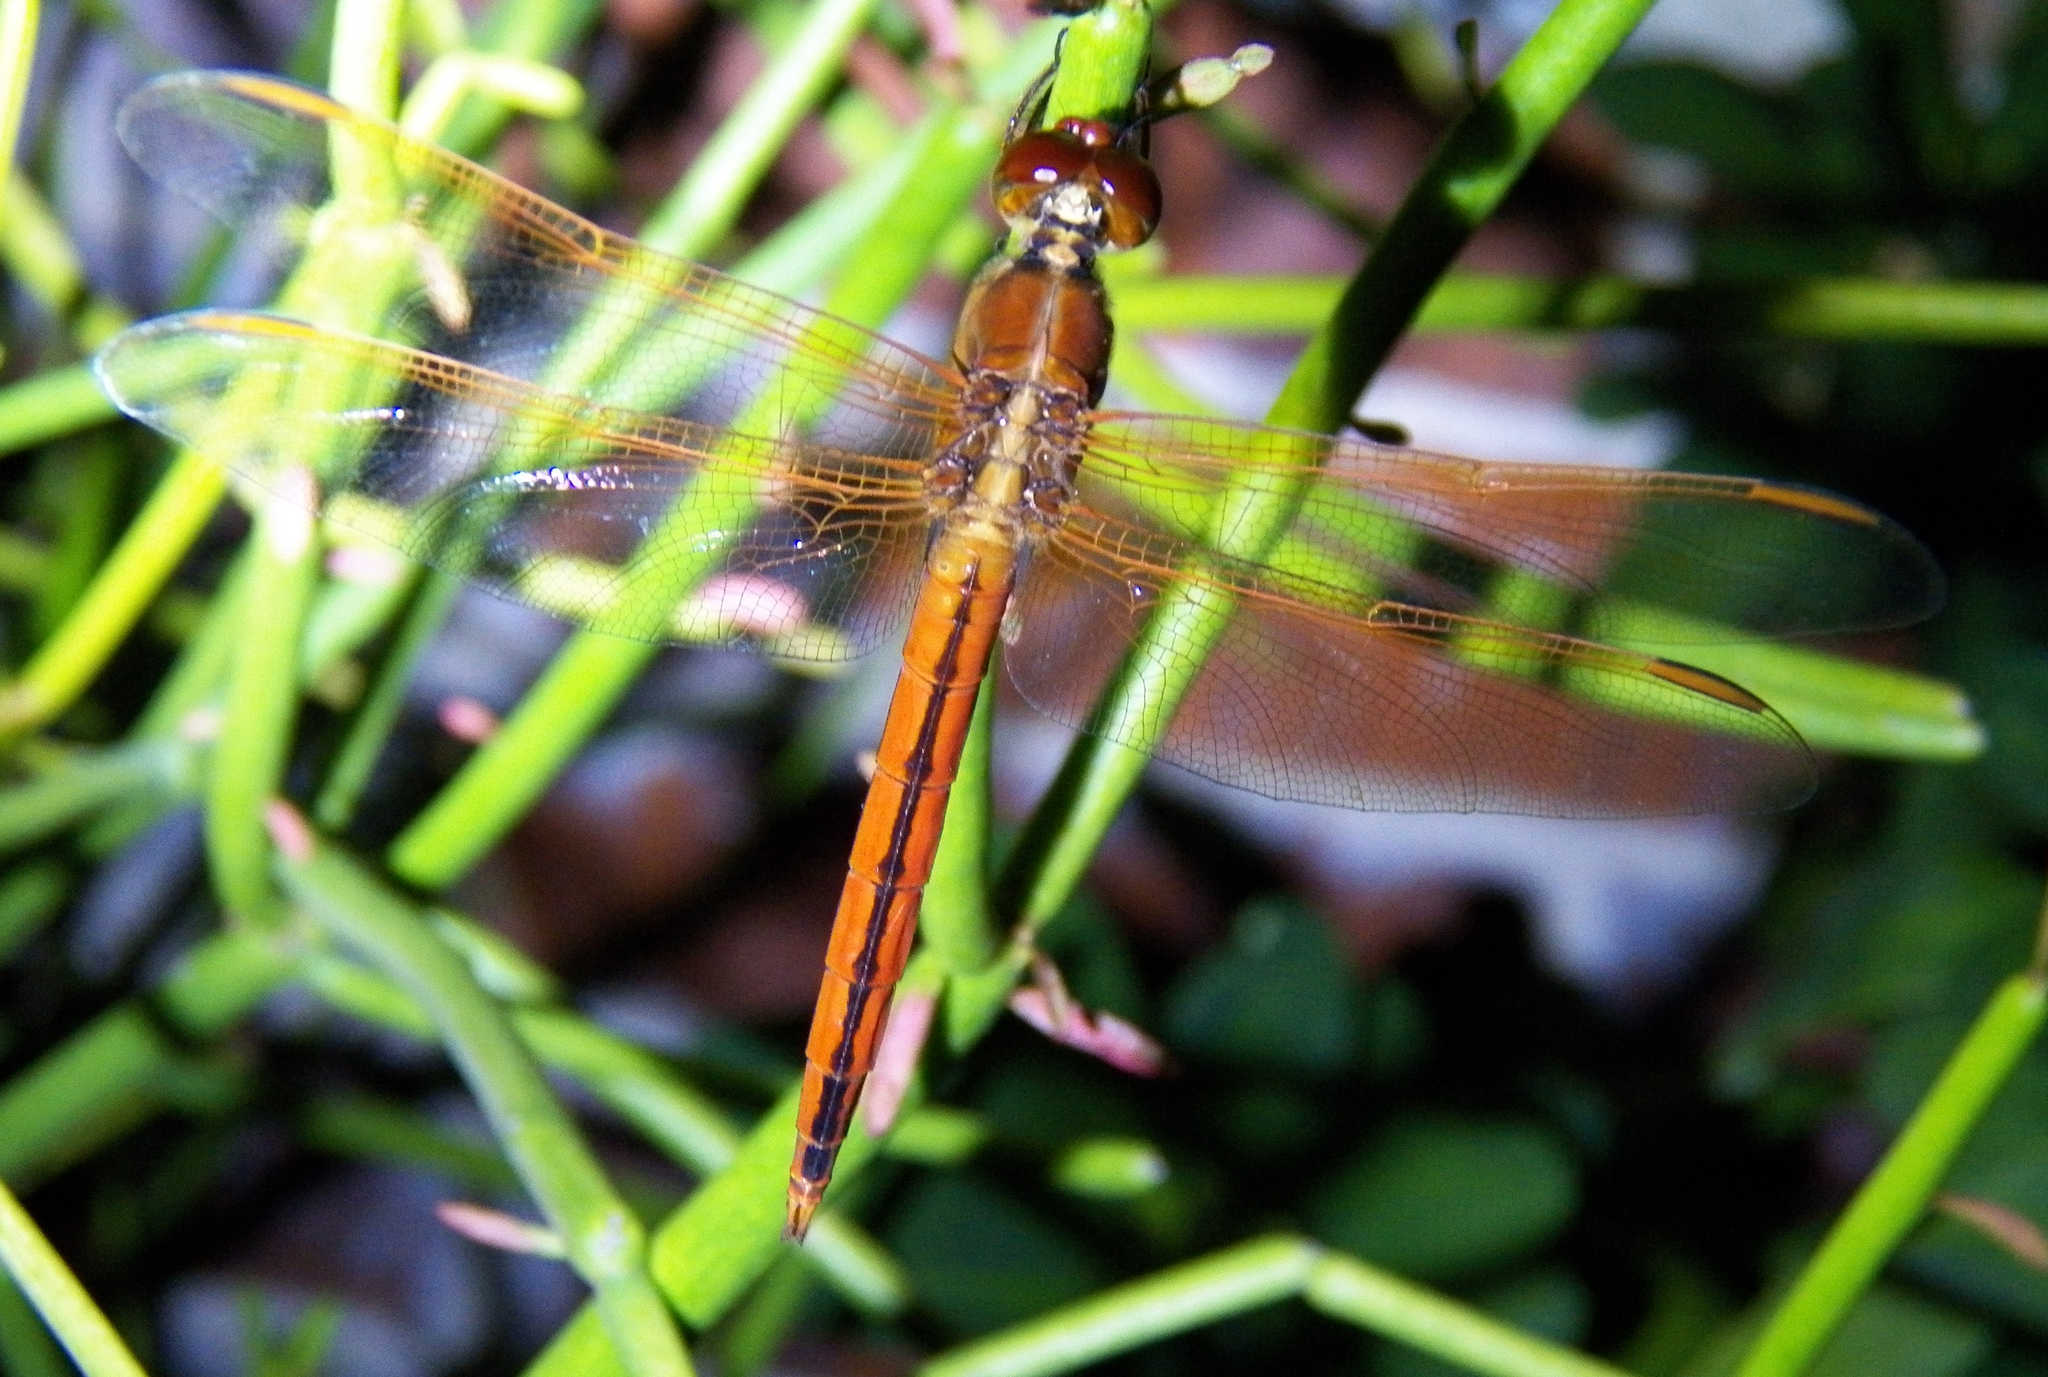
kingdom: Animalia
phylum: Arthropoda
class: Insecta
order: Odonata
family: Libellulidae
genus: Libellula
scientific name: Libellula needhami
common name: Needham's skimmer
